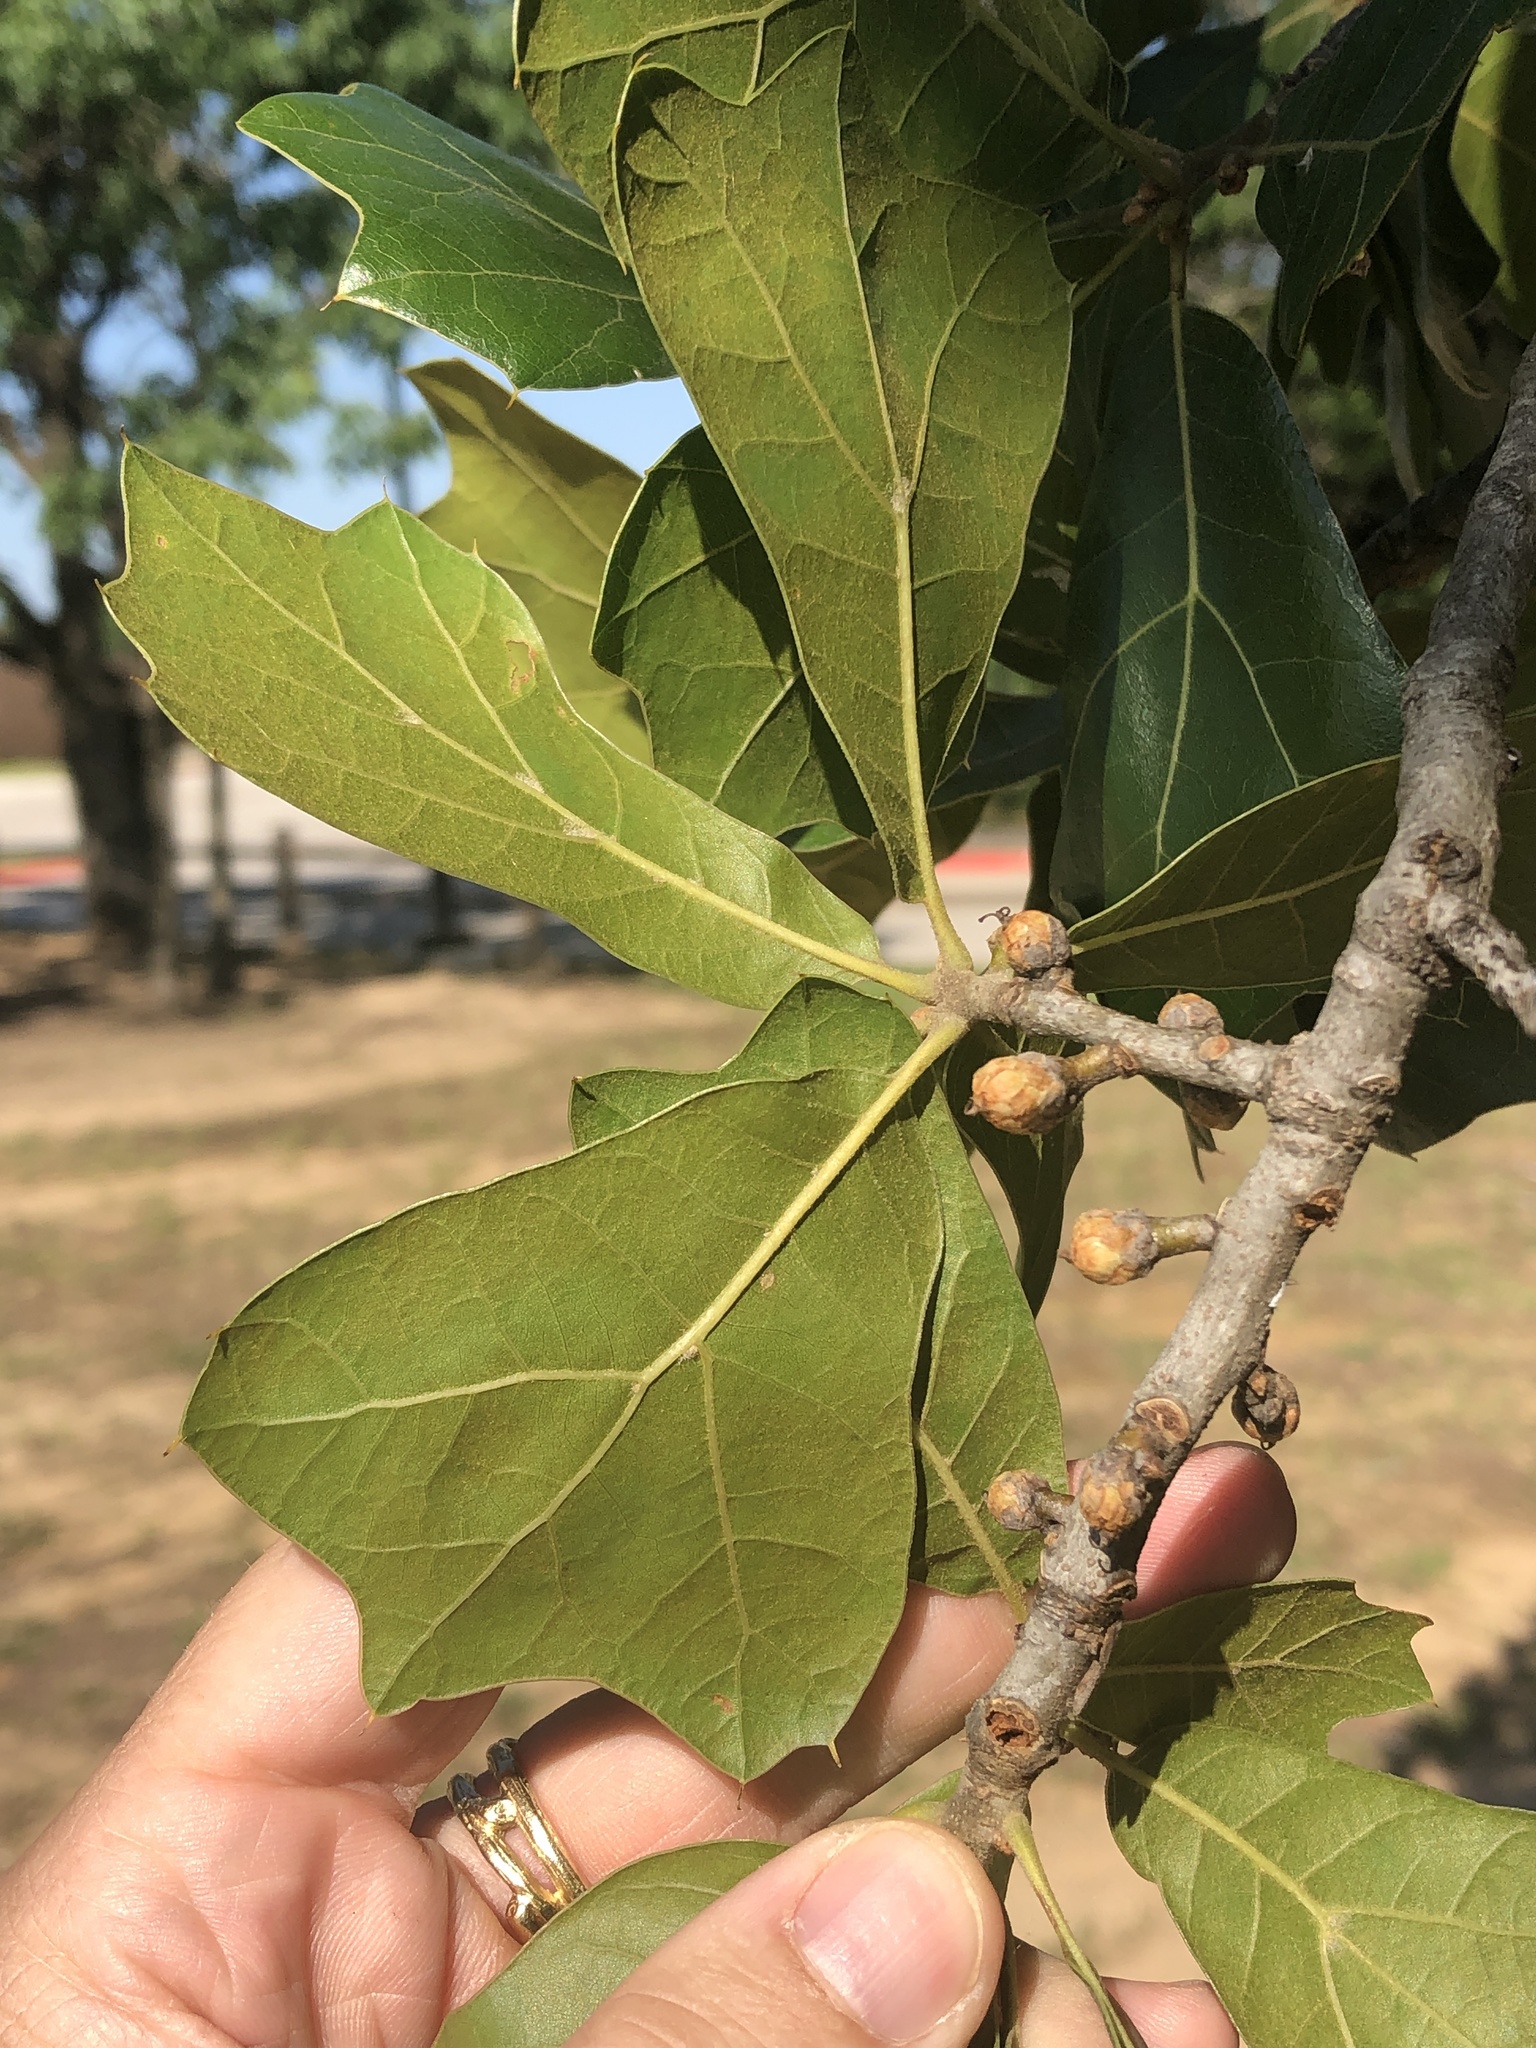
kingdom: Plantae
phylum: Tracheophyta
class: Magnoliopsida
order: Fagales
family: Fagaceae
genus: Quercus
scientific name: Quercus marilandica
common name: Blackjack oak
